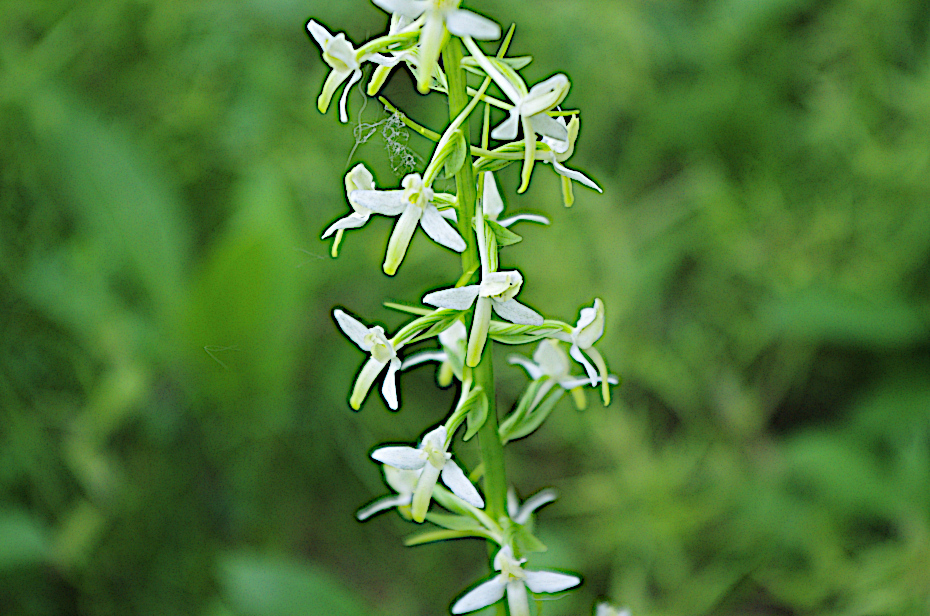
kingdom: Plantae
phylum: Tracheophyta
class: Liliopsida
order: Asparagales
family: Orchidaceae
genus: Platanthera
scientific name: Platanthera bifolia
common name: Lesser butterfly-orchid
